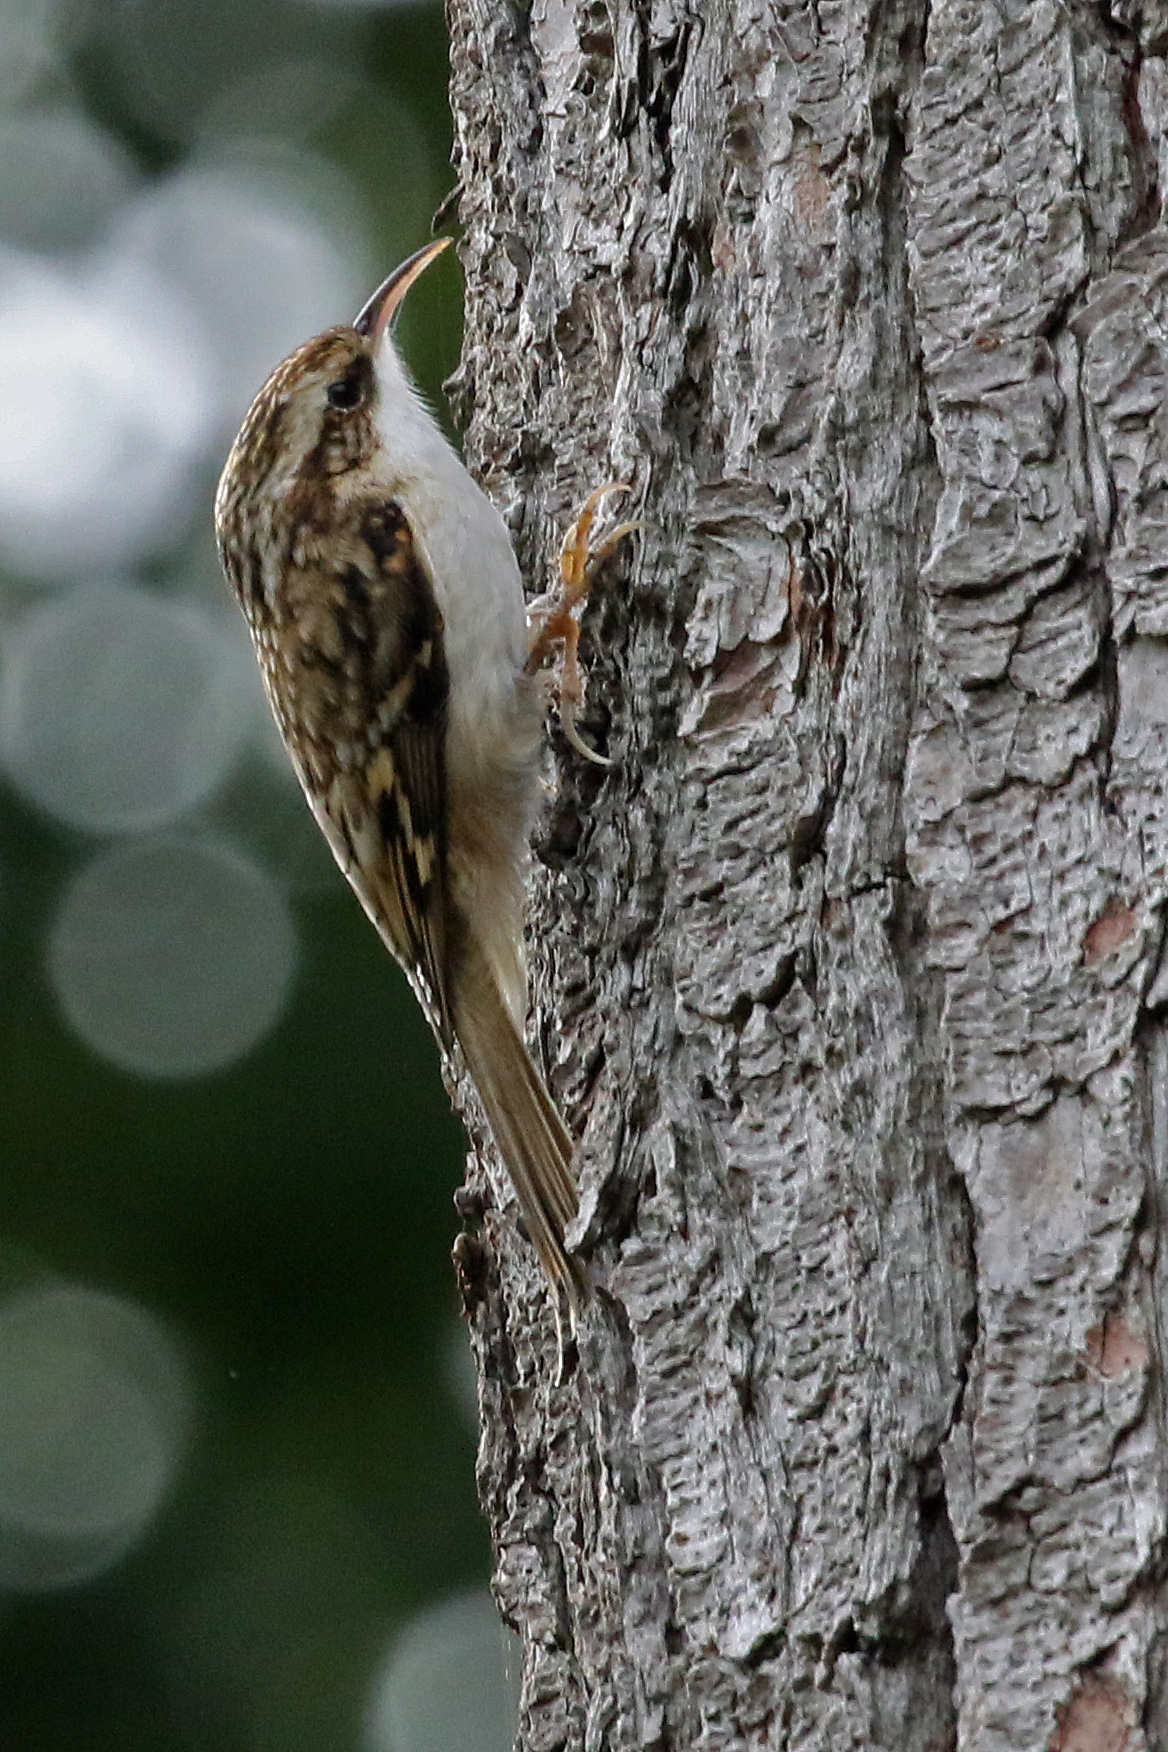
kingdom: Animalia
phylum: Chordata
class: Aves
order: Passeriformes
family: Certhiidae
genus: Certhia
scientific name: Certhia familiaris
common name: Eurasian treecreeper
